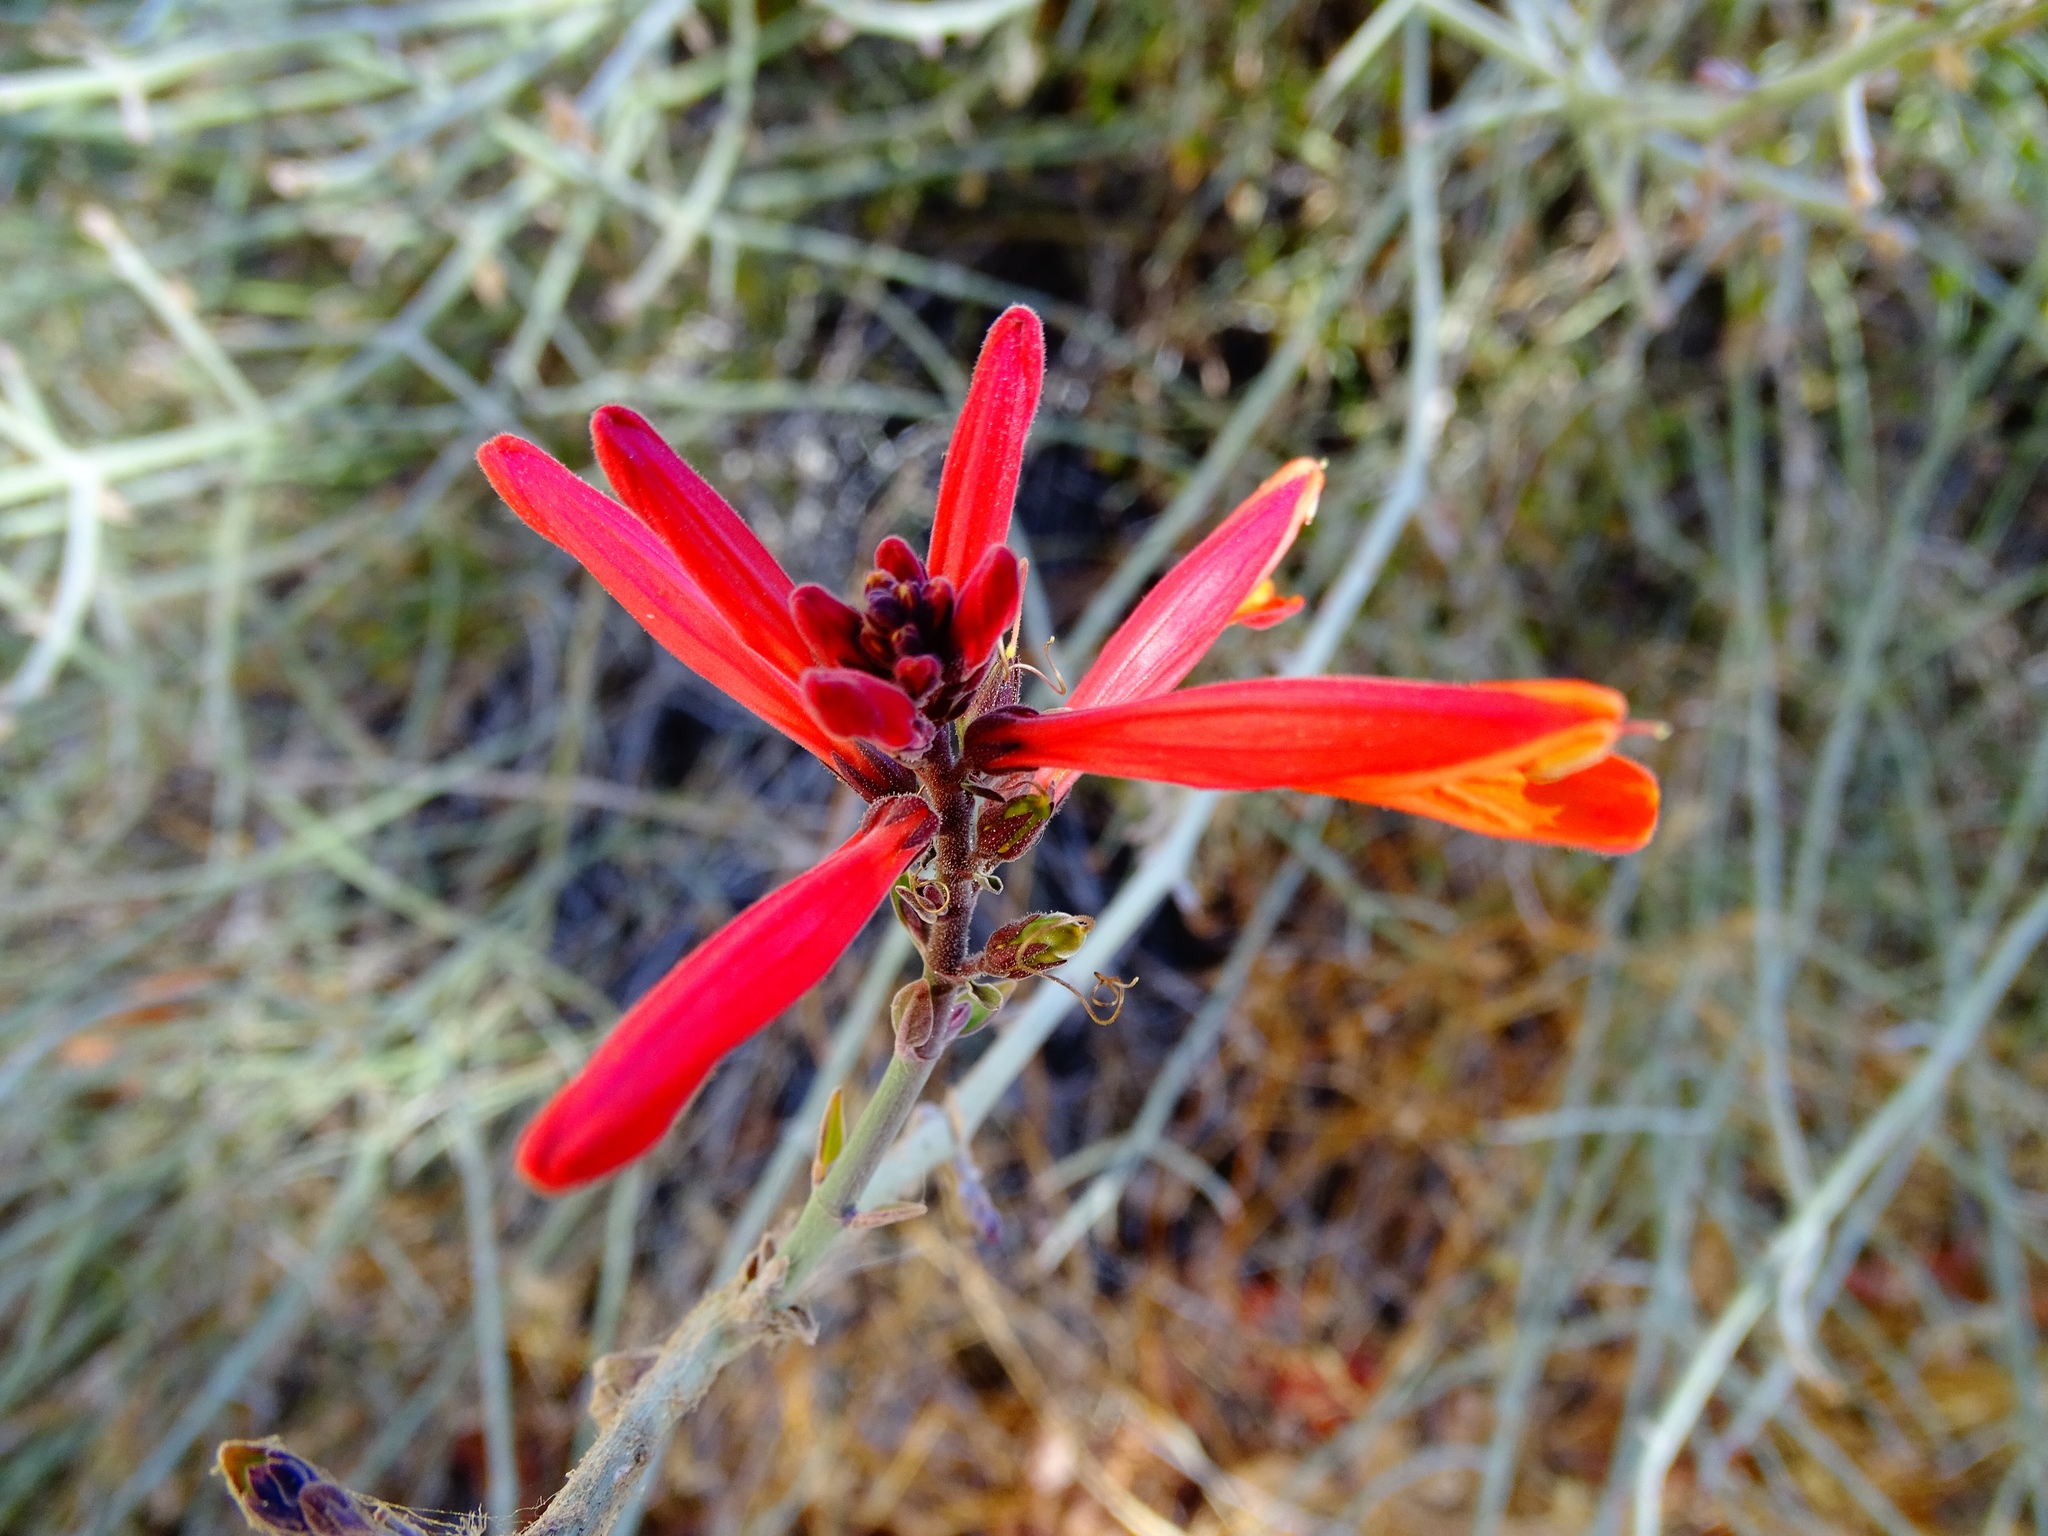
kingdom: Plantae
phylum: Tracheophyta
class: Magnoliopsida
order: Lamiales
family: Acanthaceae
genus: Justicia
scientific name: Justicia californica
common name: Chuparosa-honeysuckle
